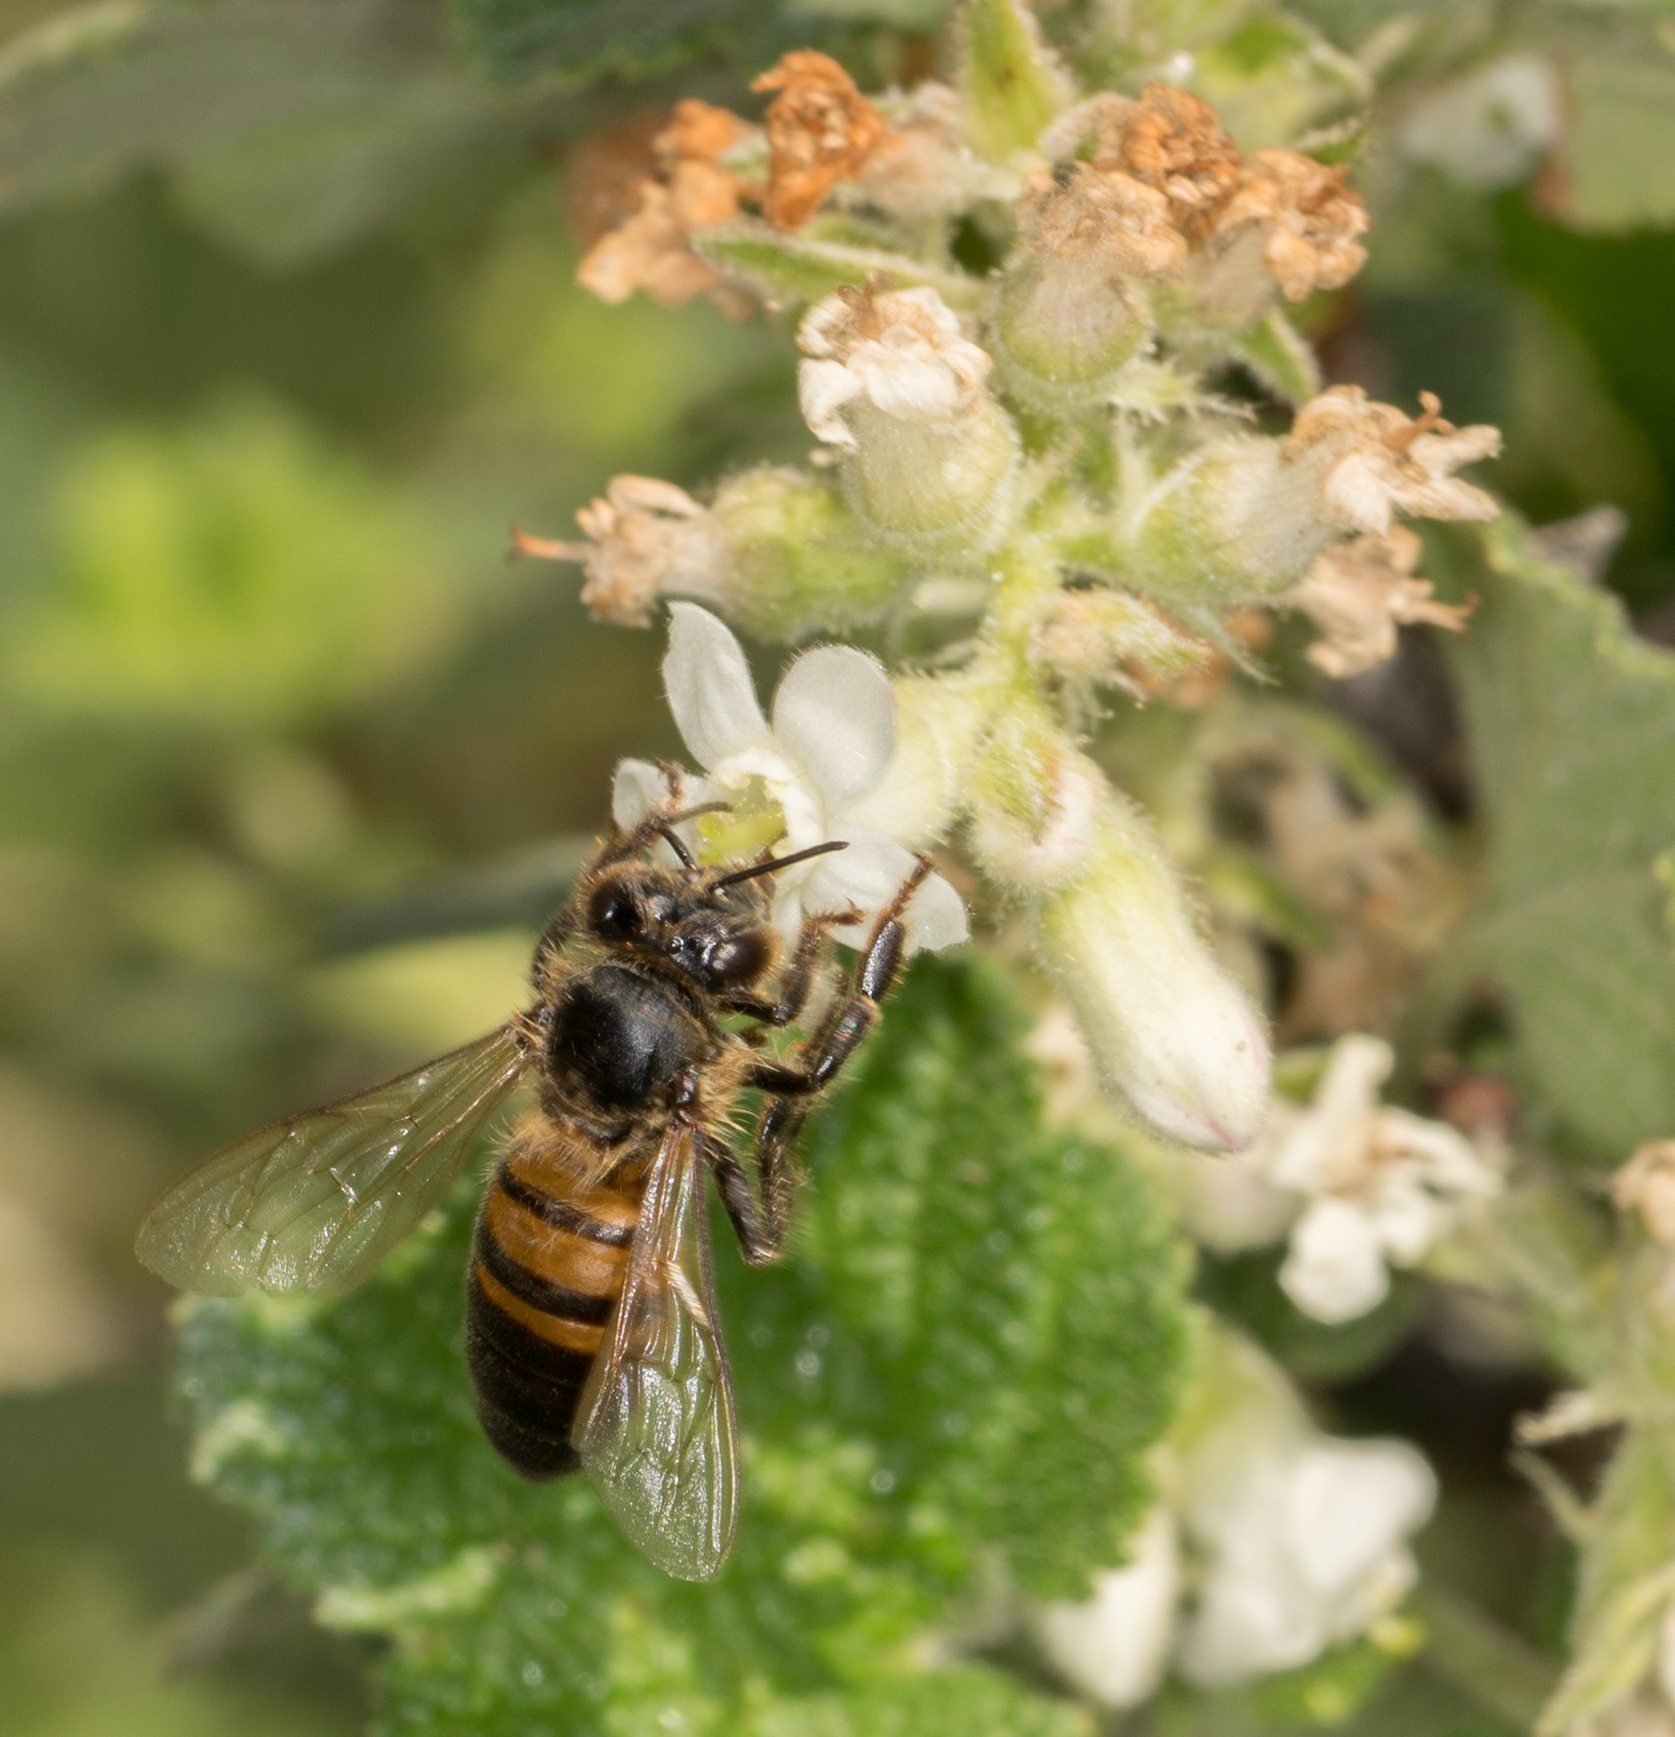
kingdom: Animalia
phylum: Arthropoda
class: Insecta
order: Hymenoptera
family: Apidae
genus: Apis
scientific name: Apis mellifera
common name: Honey bee
